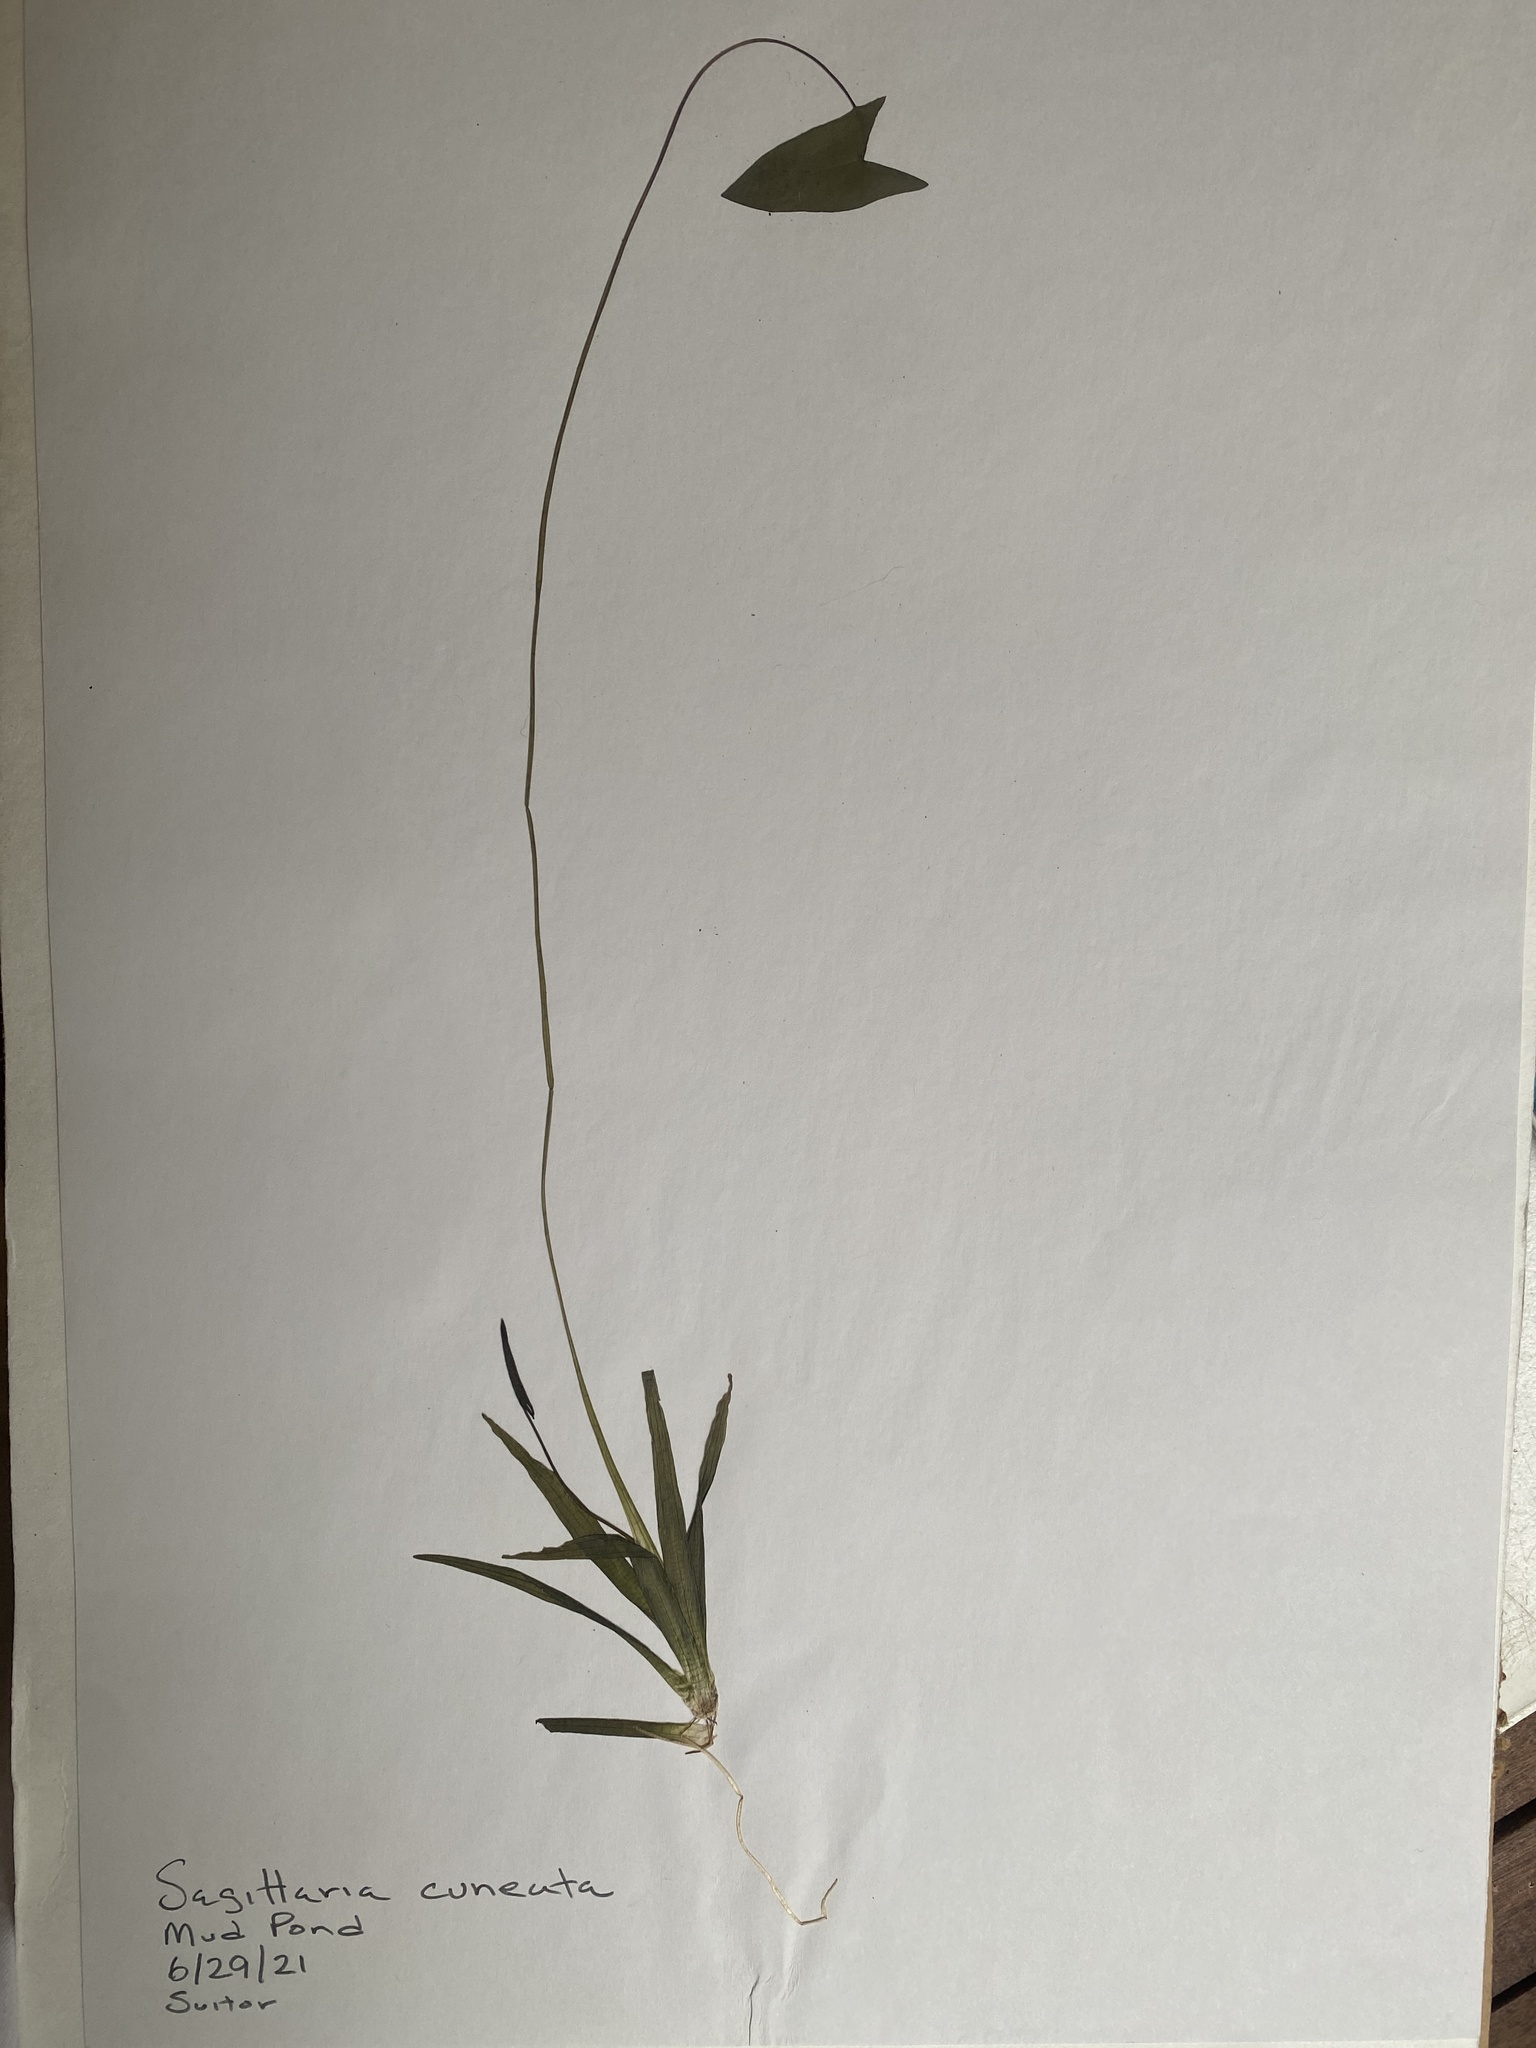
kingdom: Plantae
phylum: Tracheophyta
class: Liliopsida
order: Alismatales
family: Alismataceae
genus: Sagittaria
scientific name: Sagittaria cuneata
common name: Northern arrowhead
